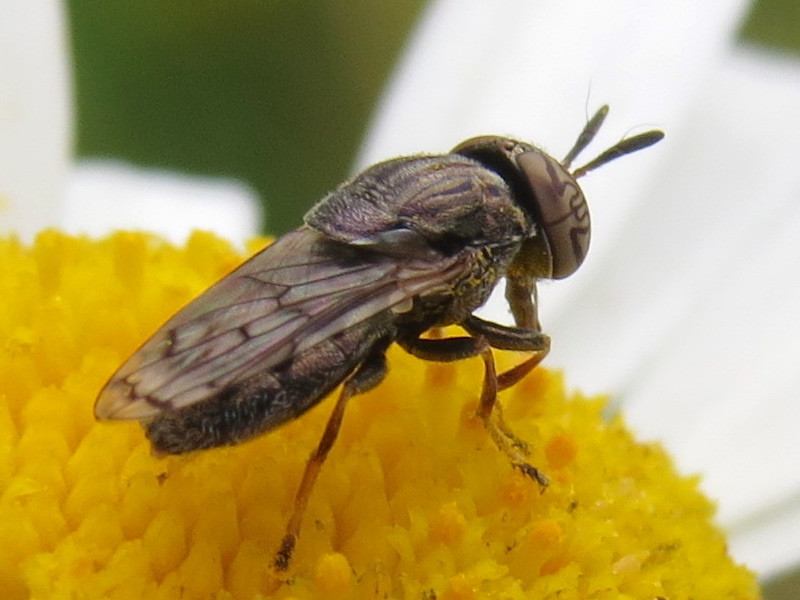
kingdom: Animalia
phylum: Arthropoda
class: Insecta
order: Diptera
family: Syrphidae
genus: Orthonevra
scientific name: Orthonevra nitida
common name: Wavy mucksucker
